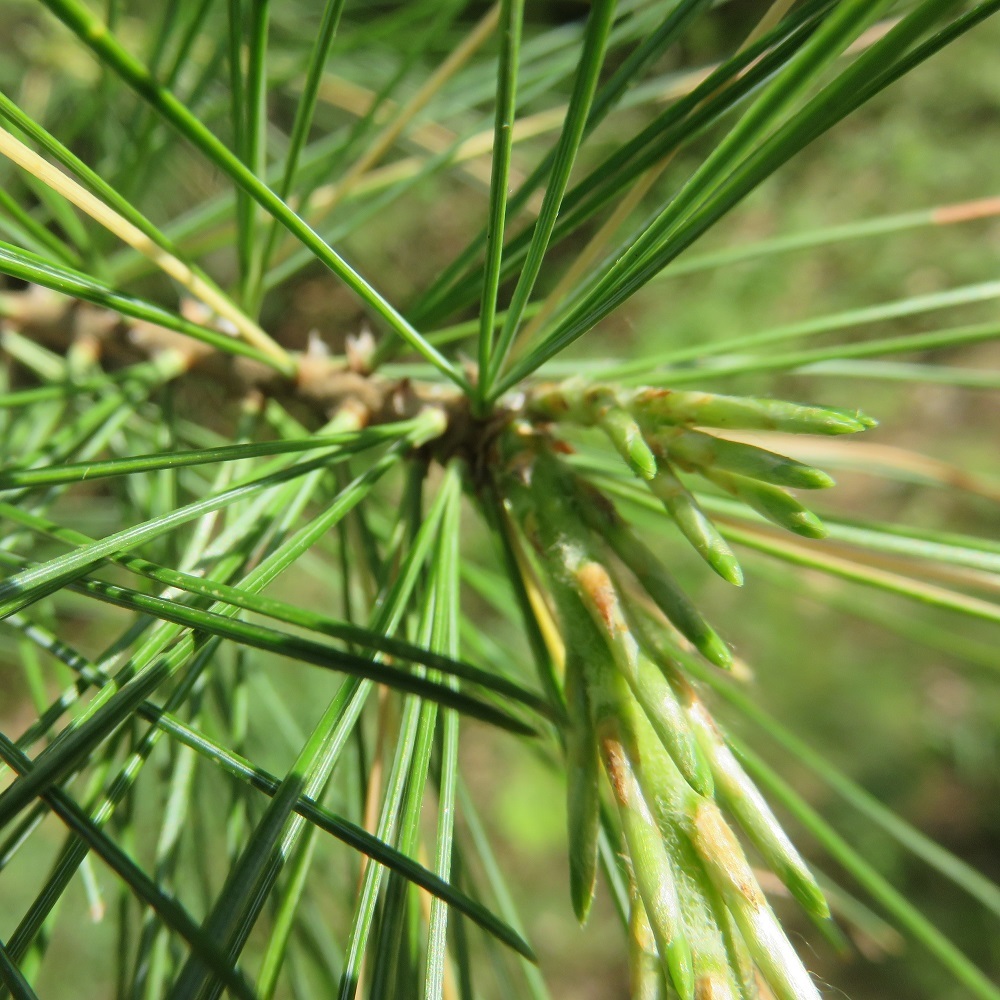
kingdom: Plantae
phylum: Tracheophyta
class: Pinopsida
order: Pinales
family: Pinaceae
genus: Pinus
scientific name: Pinus strobus
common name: Weymouth pine
